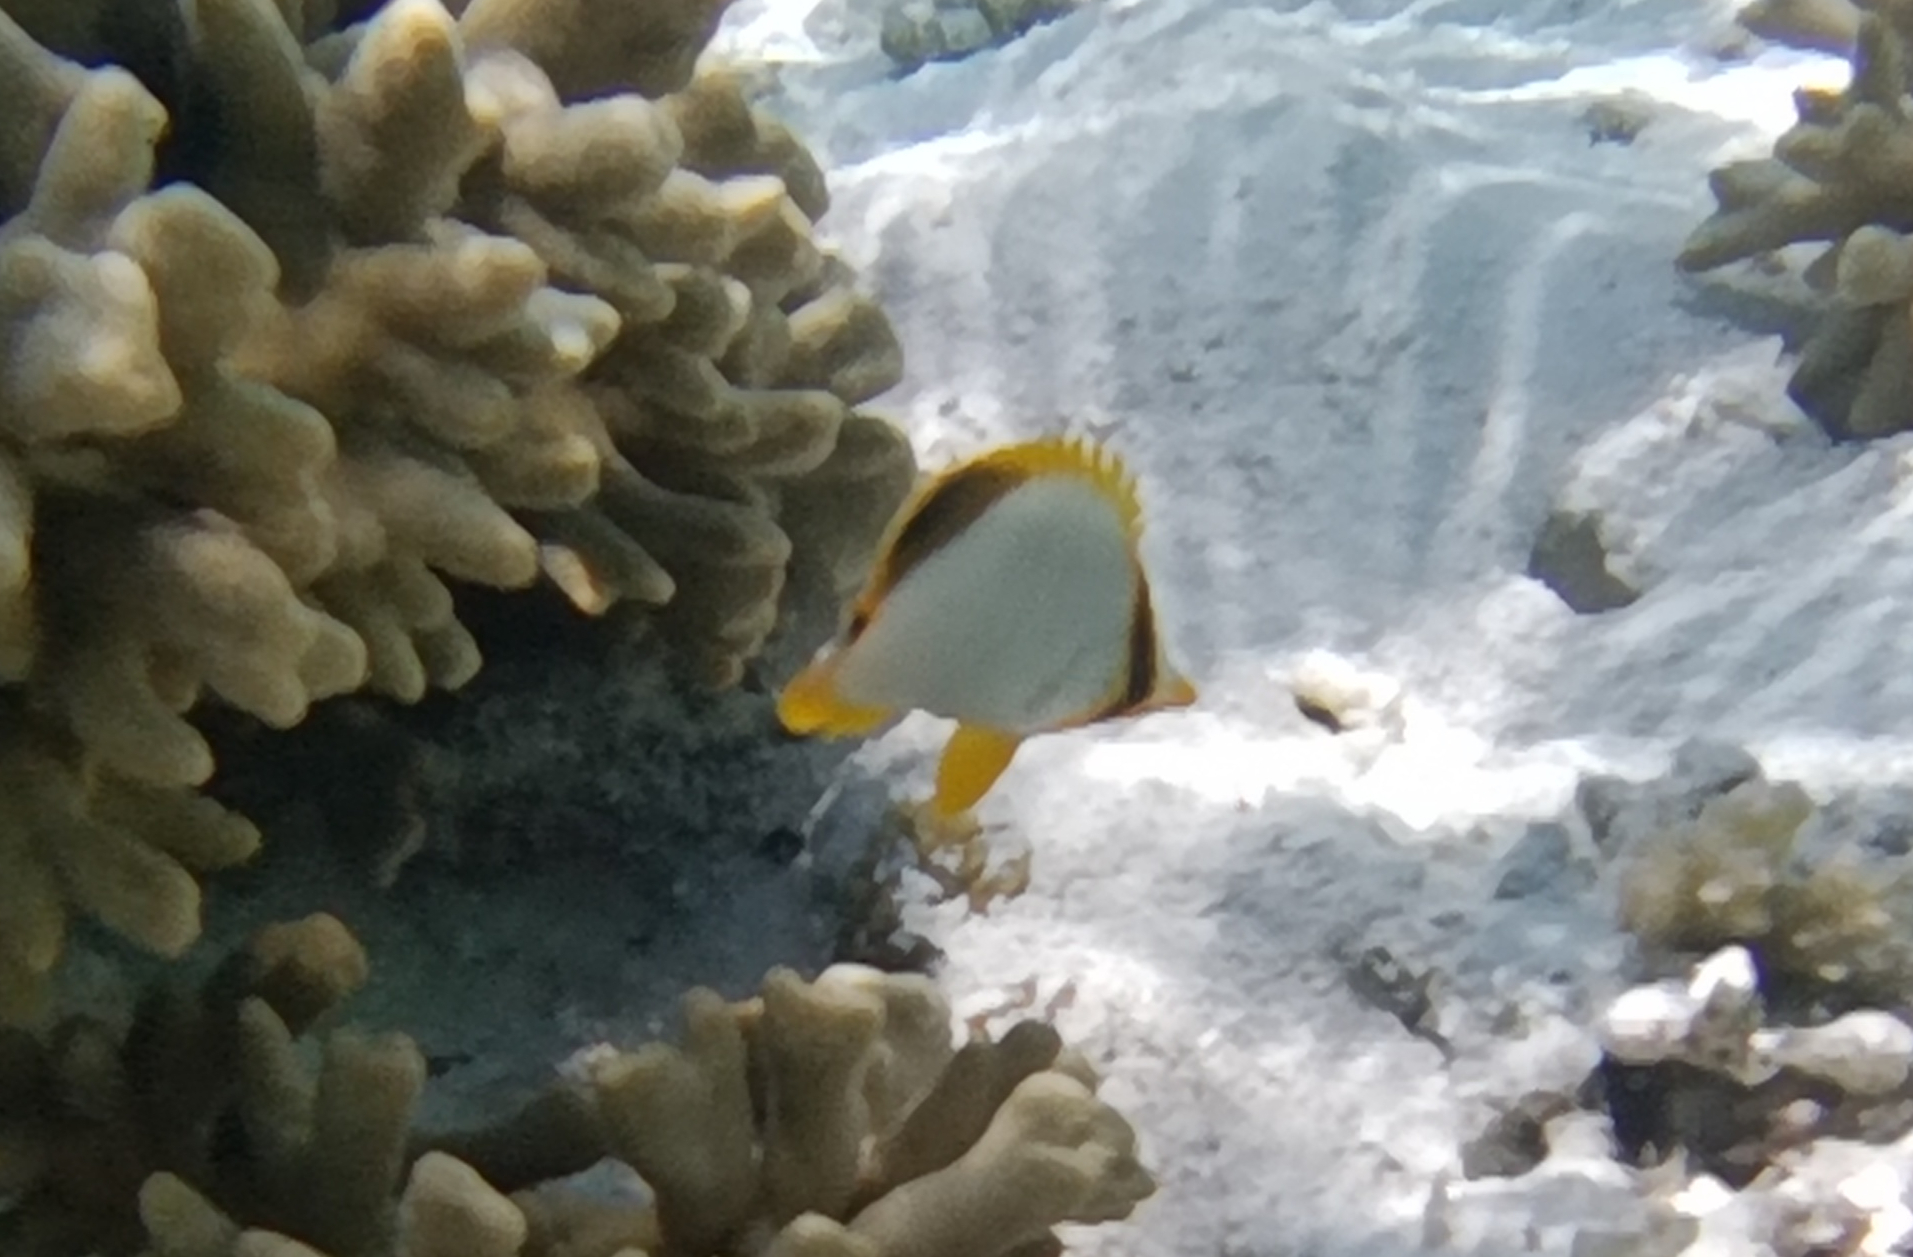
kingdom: Animalia
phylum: Chordata
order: Perciformes
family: Chaetodontidae
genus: Chaetodon
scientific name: Chaetodon xanthocephalus
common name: Yellowhead butterflyfish
